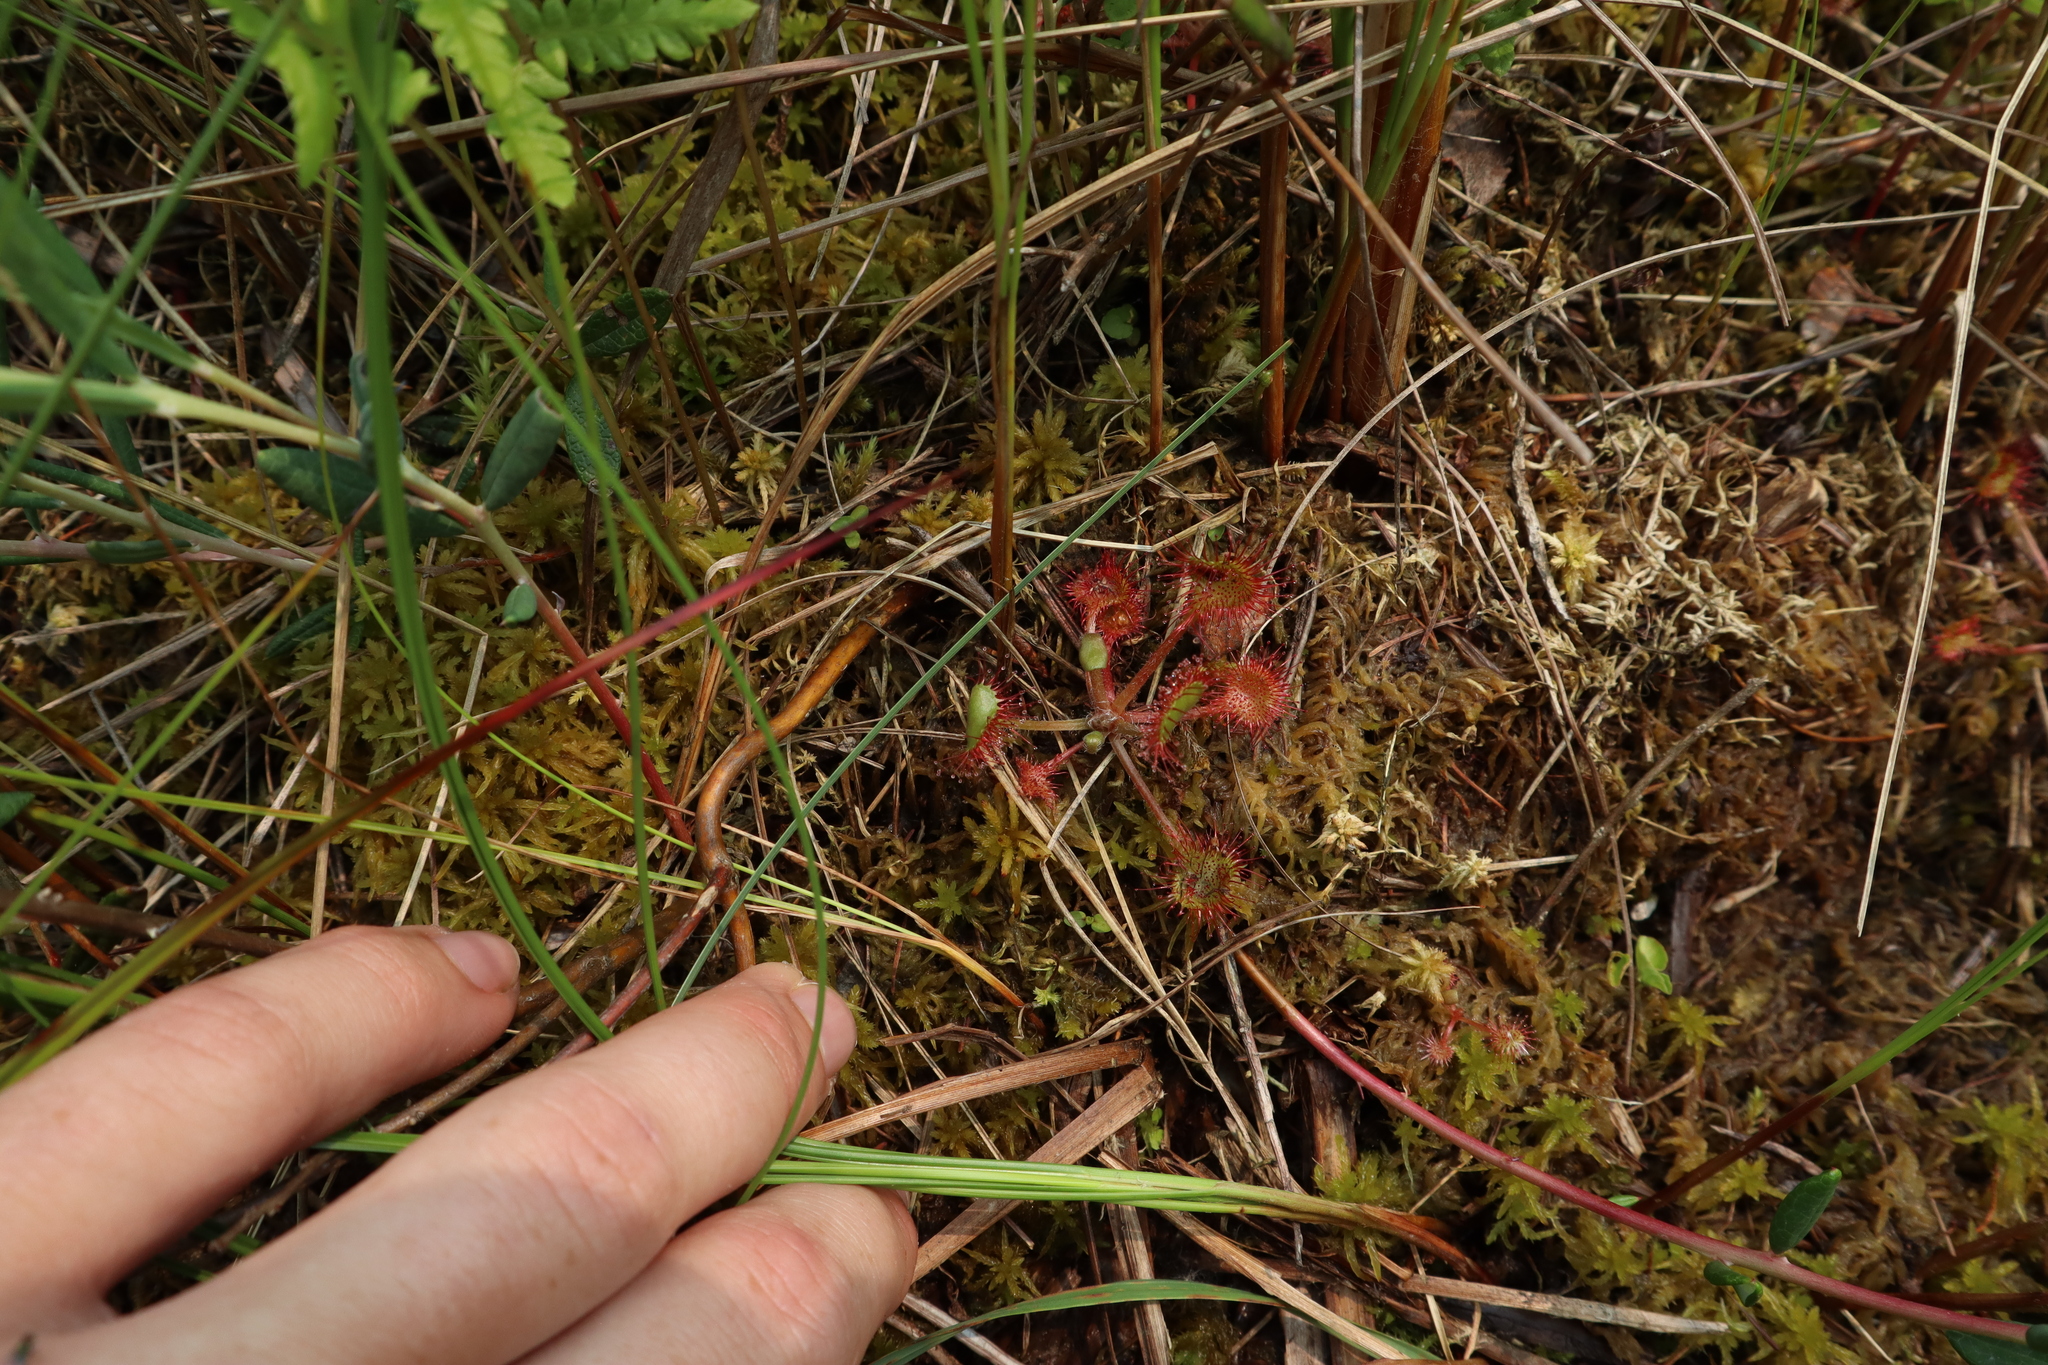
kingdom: Plantae
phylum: Tracheophyta
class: Magnoliopsida
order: Caryophyllales
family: Droseraceae
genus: Drosera
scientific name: Drosera rotundifolia
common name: Round-leaved sundew
